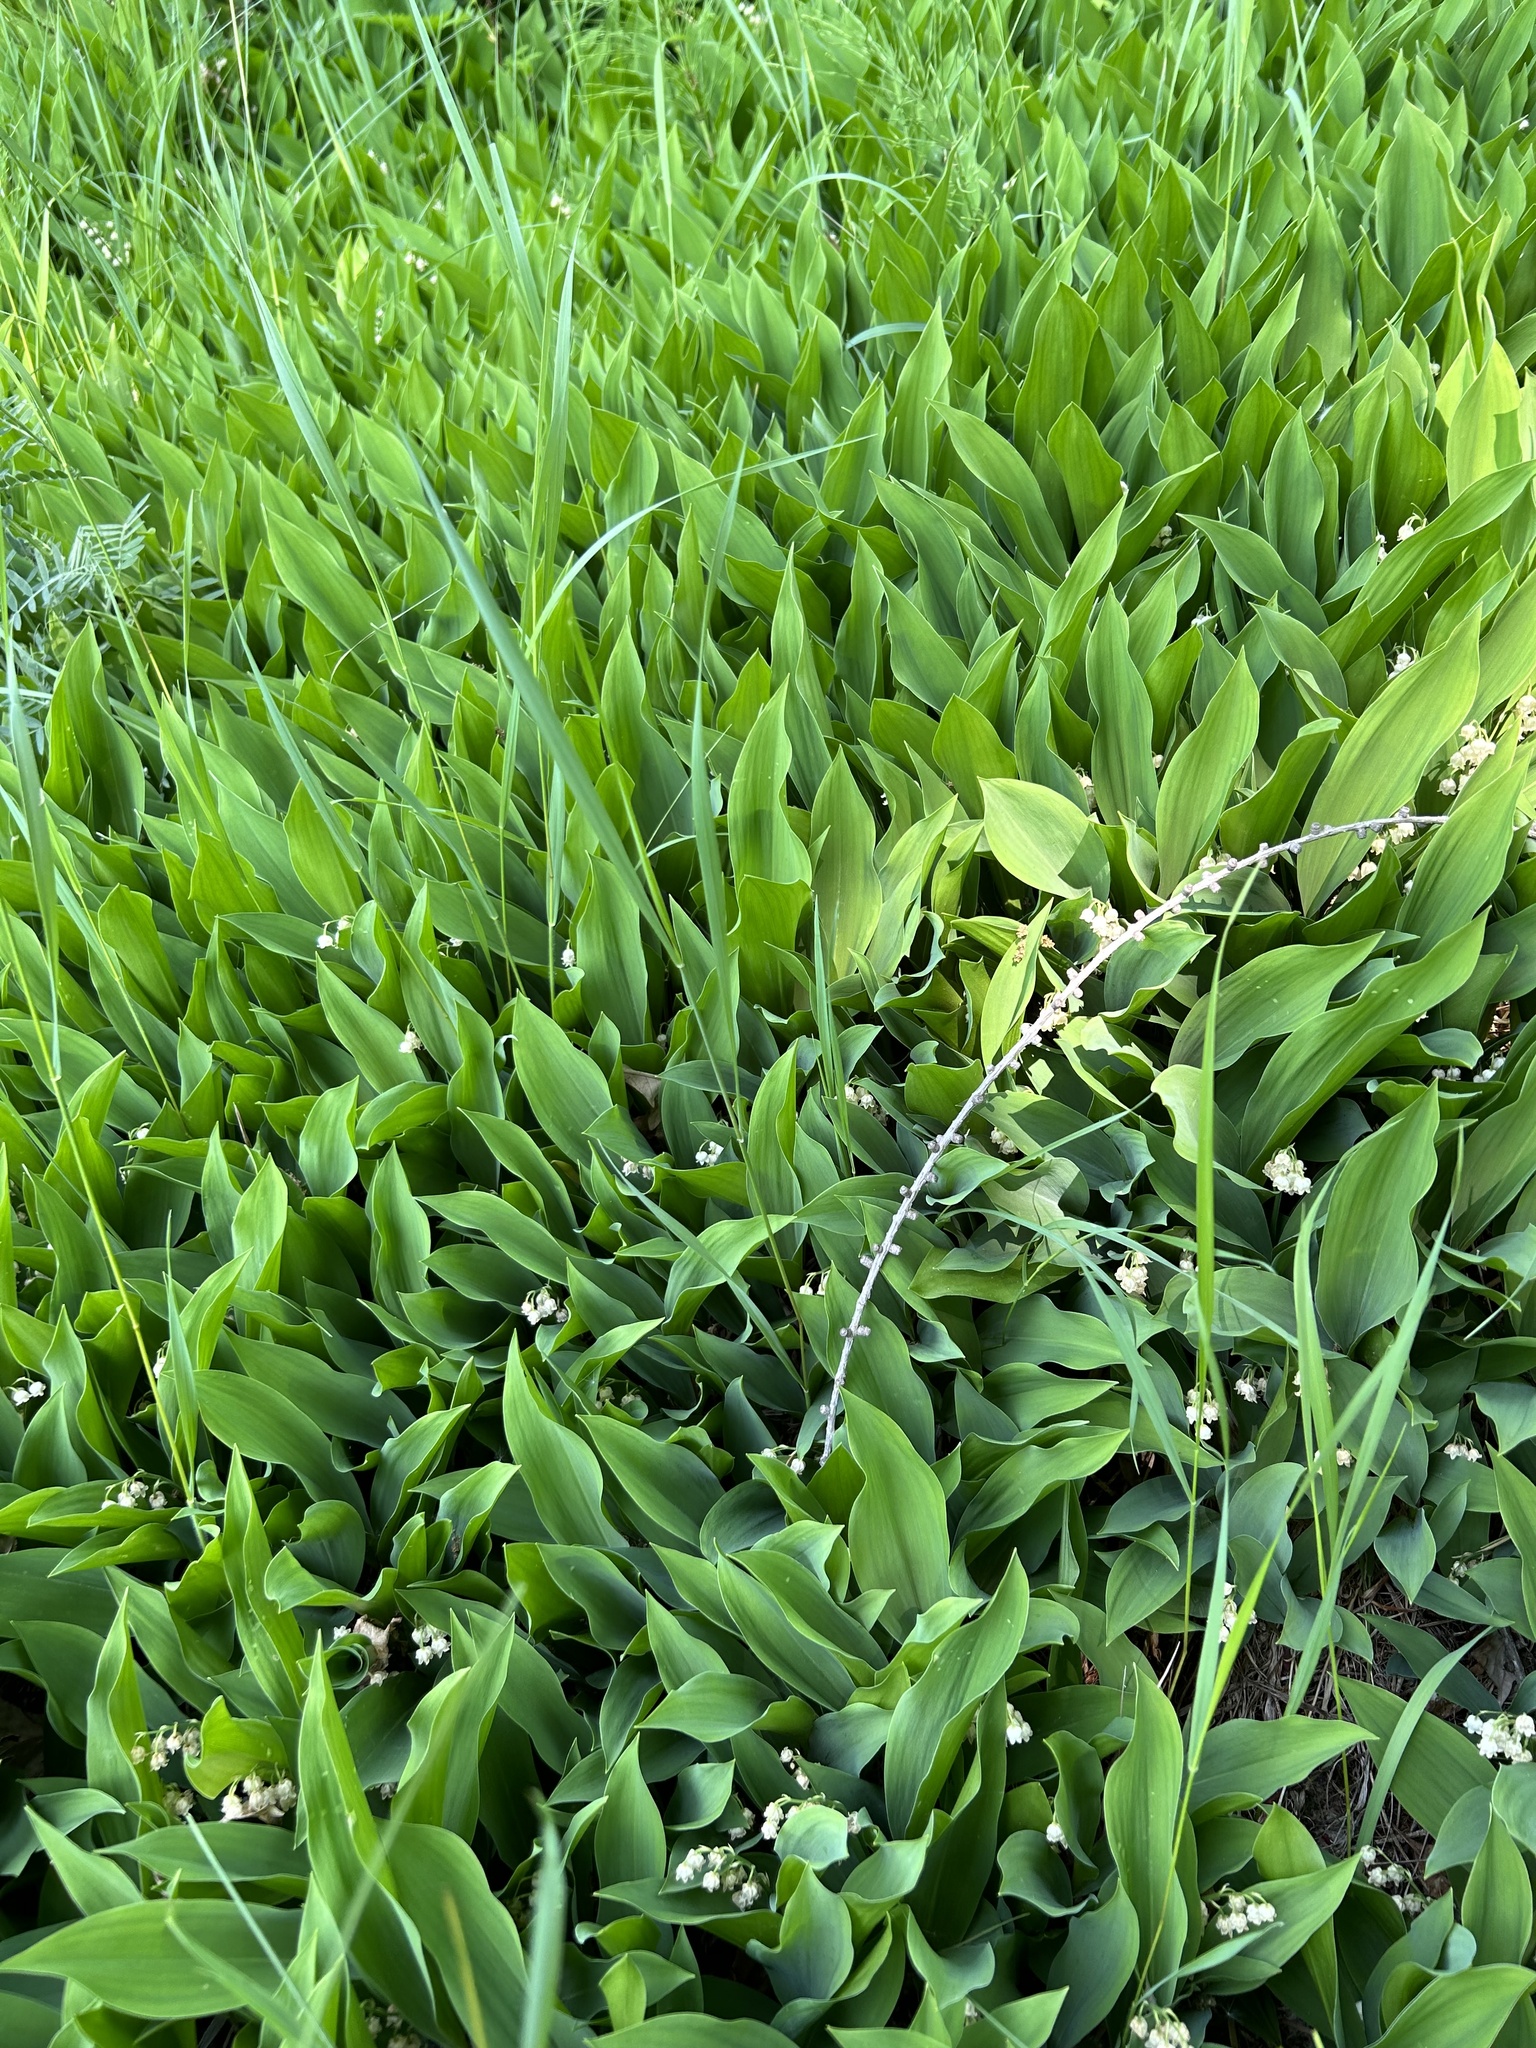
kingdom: Plantae
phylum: Tracheophyta
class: Liliopsida
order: Asparagales
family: Asparagaceae
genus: Convallaria
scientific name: Convallaria majalis
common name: Lily-of-the-valley
